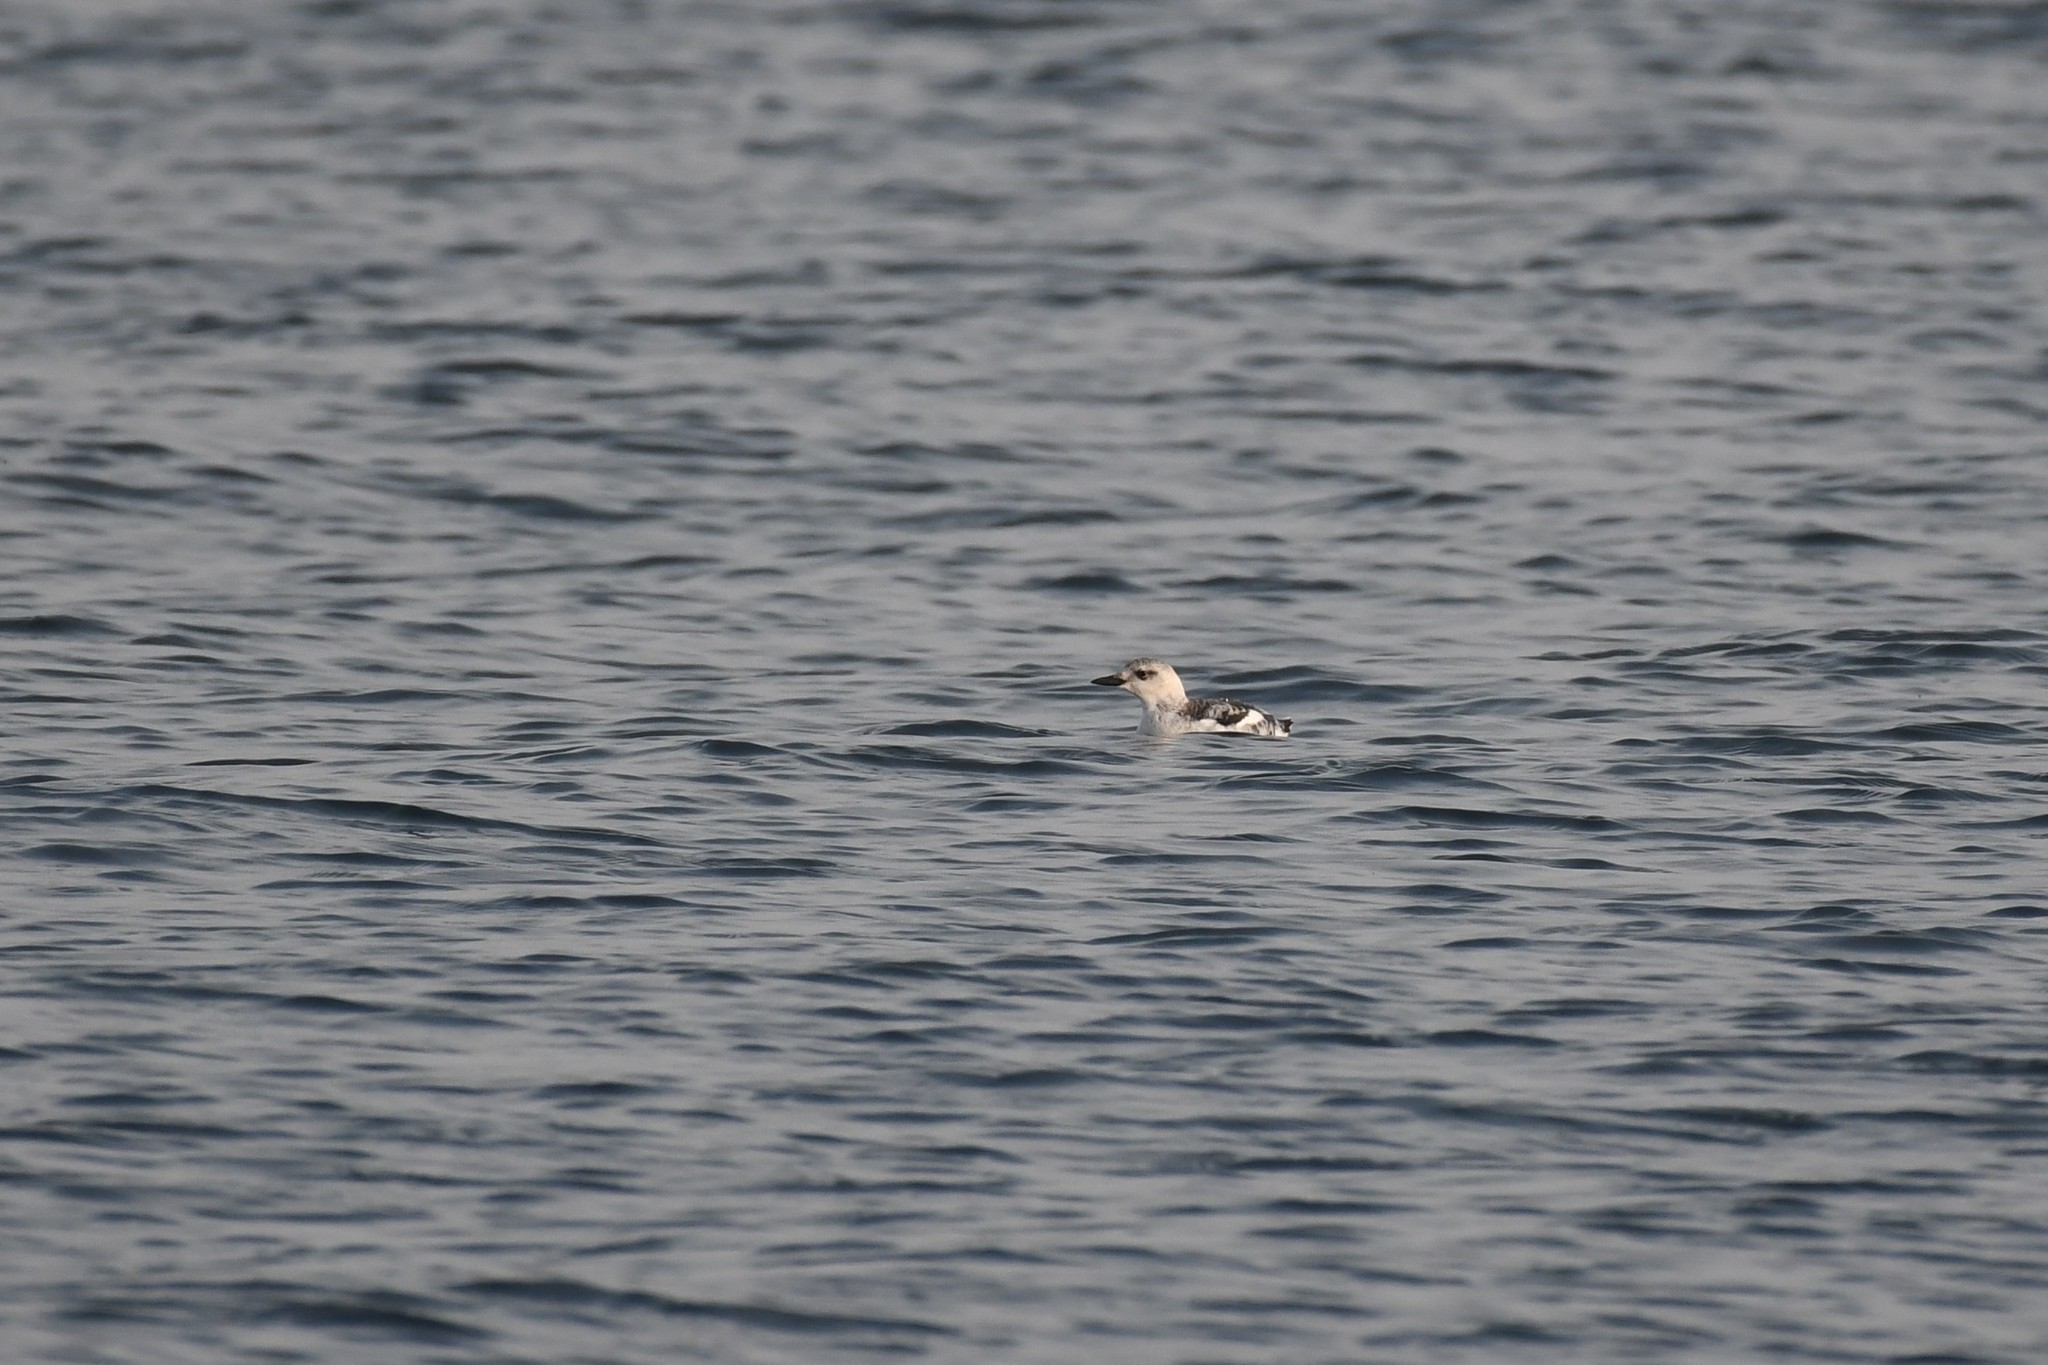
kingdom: Animalia
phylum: Chordata
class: Aves
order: Charadriiformes
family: Alcidae
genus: Cepphus
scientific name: Cepphus grylle
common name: Black guillemot
